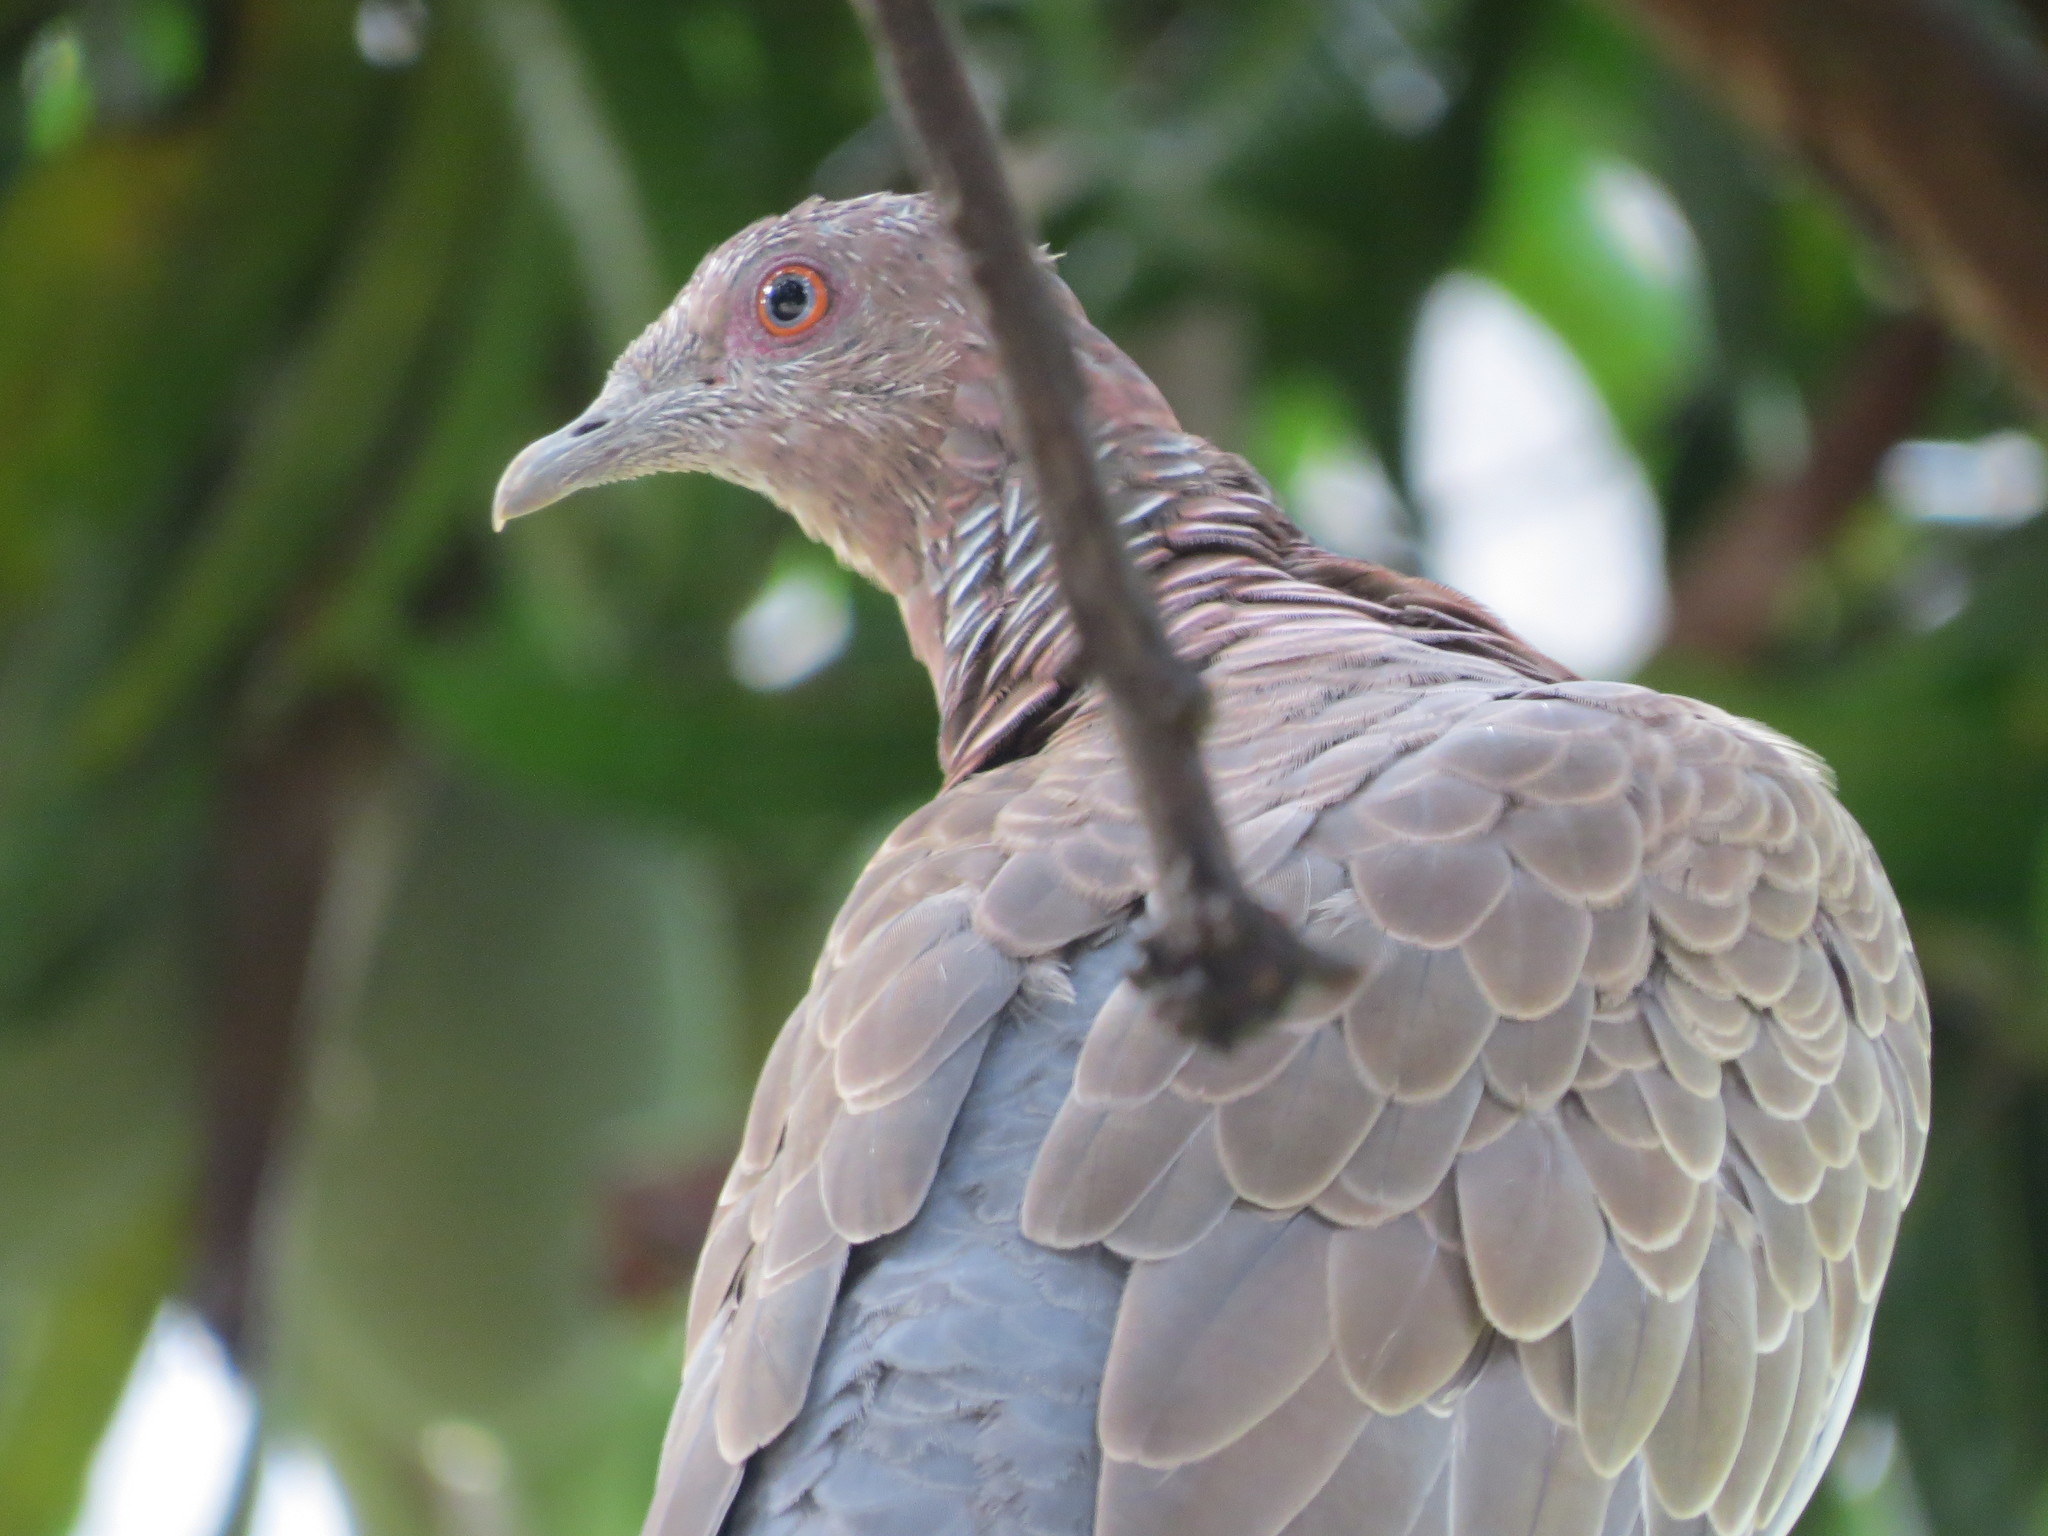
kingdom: Animalia
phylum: Chordata
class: Aves
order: Columbiformes
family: Columbidae
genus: Patagioenas
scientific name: Patagioenas picazuro
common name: Picazuro pigeon
